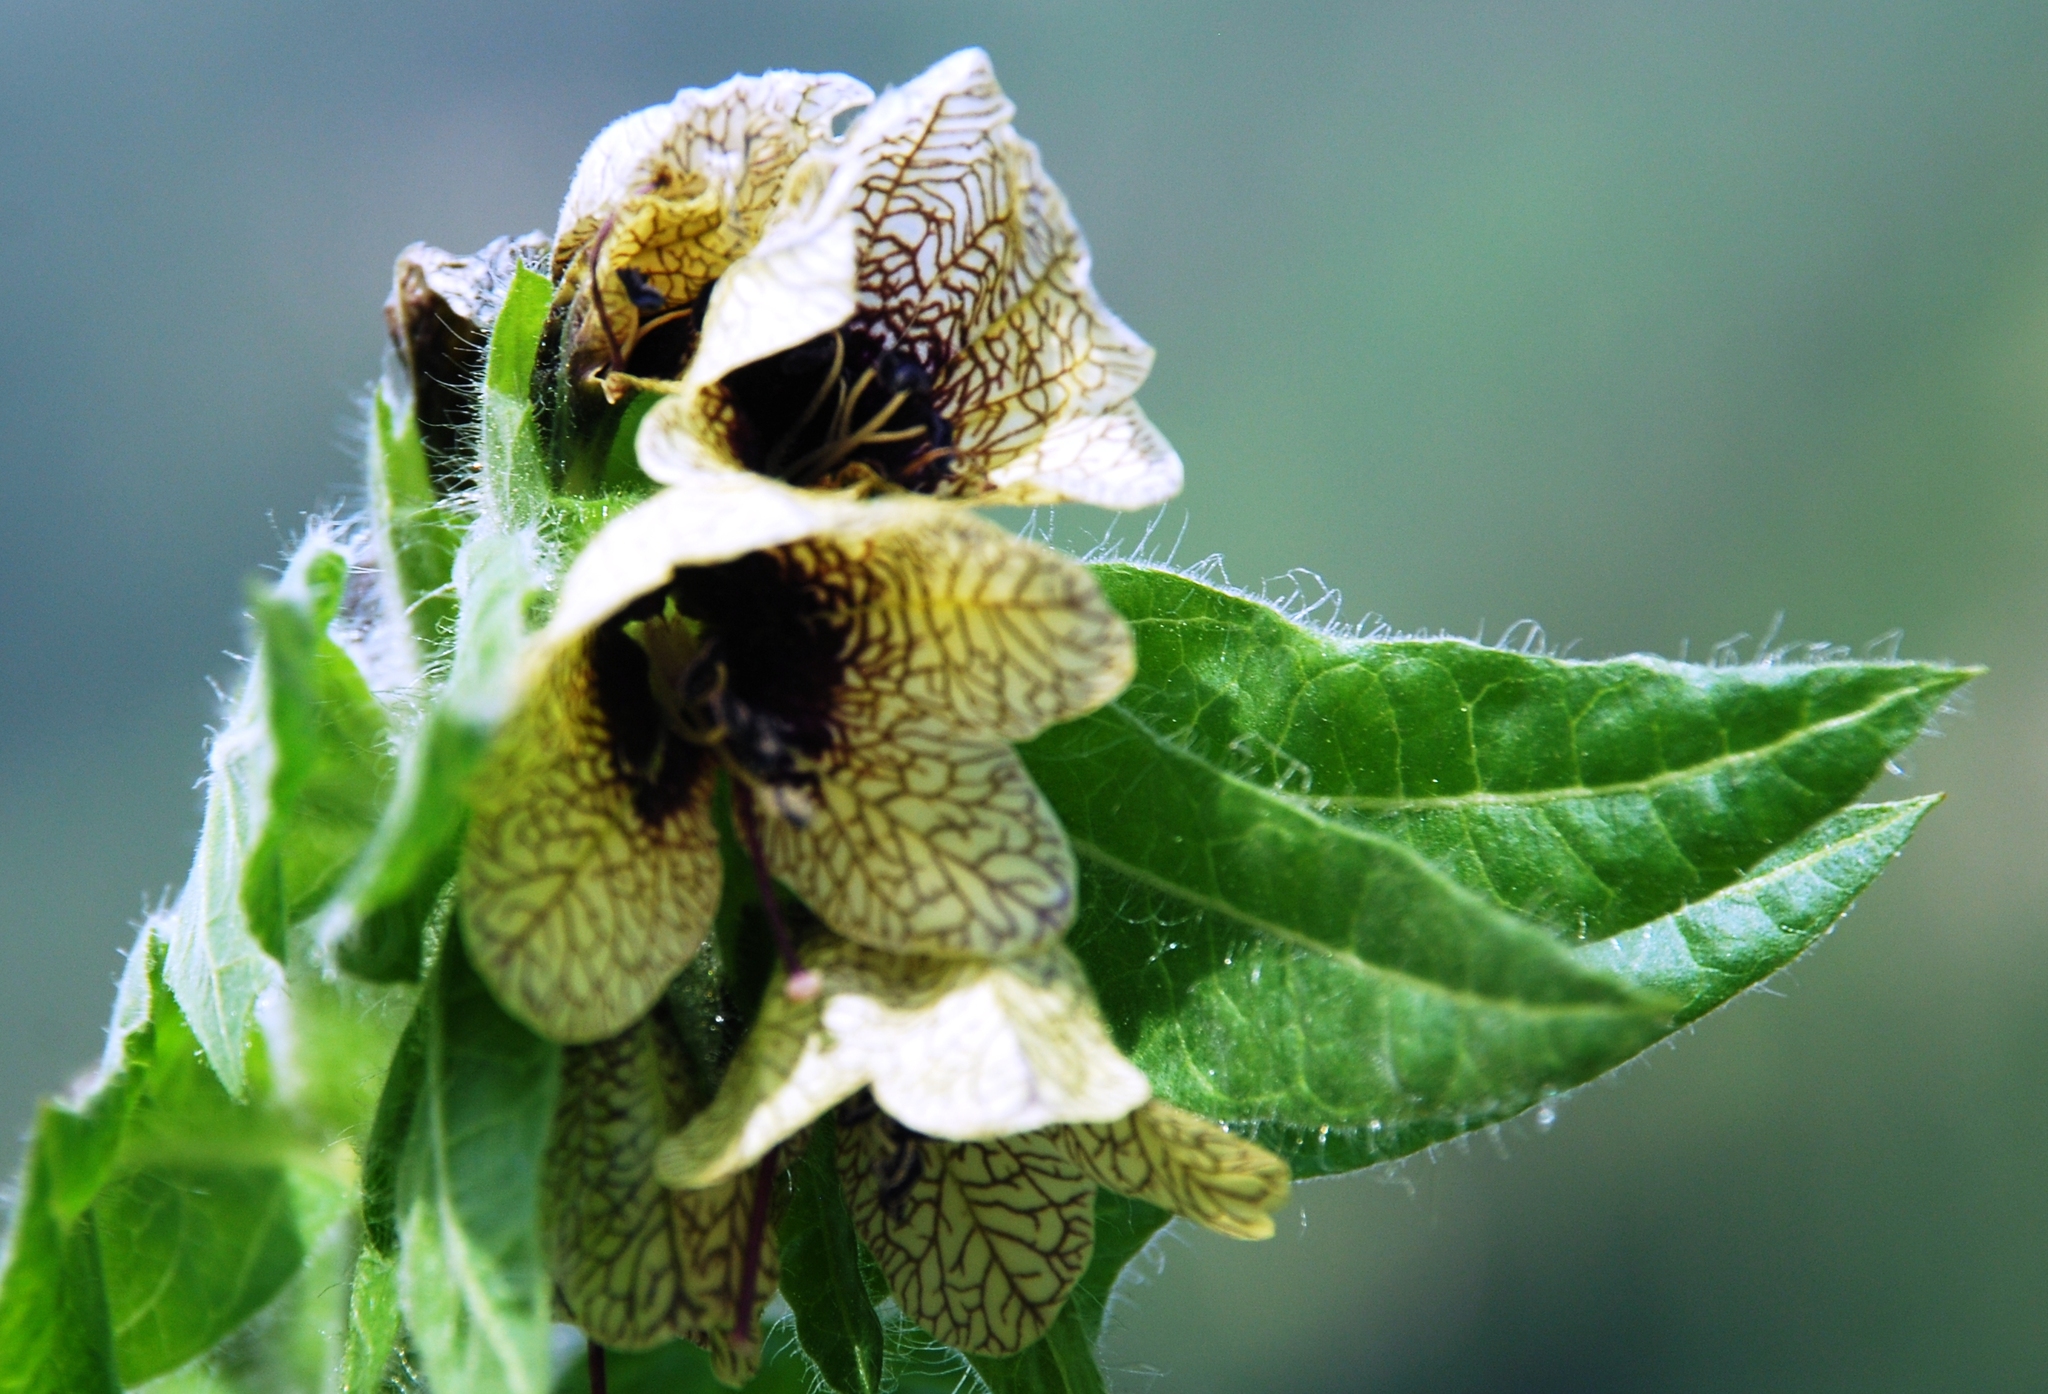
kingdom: Plantae
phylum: Tracheophyta
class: Magnoliopsida
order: Solanales
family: Solanaceae
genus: Hyoscyamus
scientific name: Hyoscyamus niger
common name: Henbane
